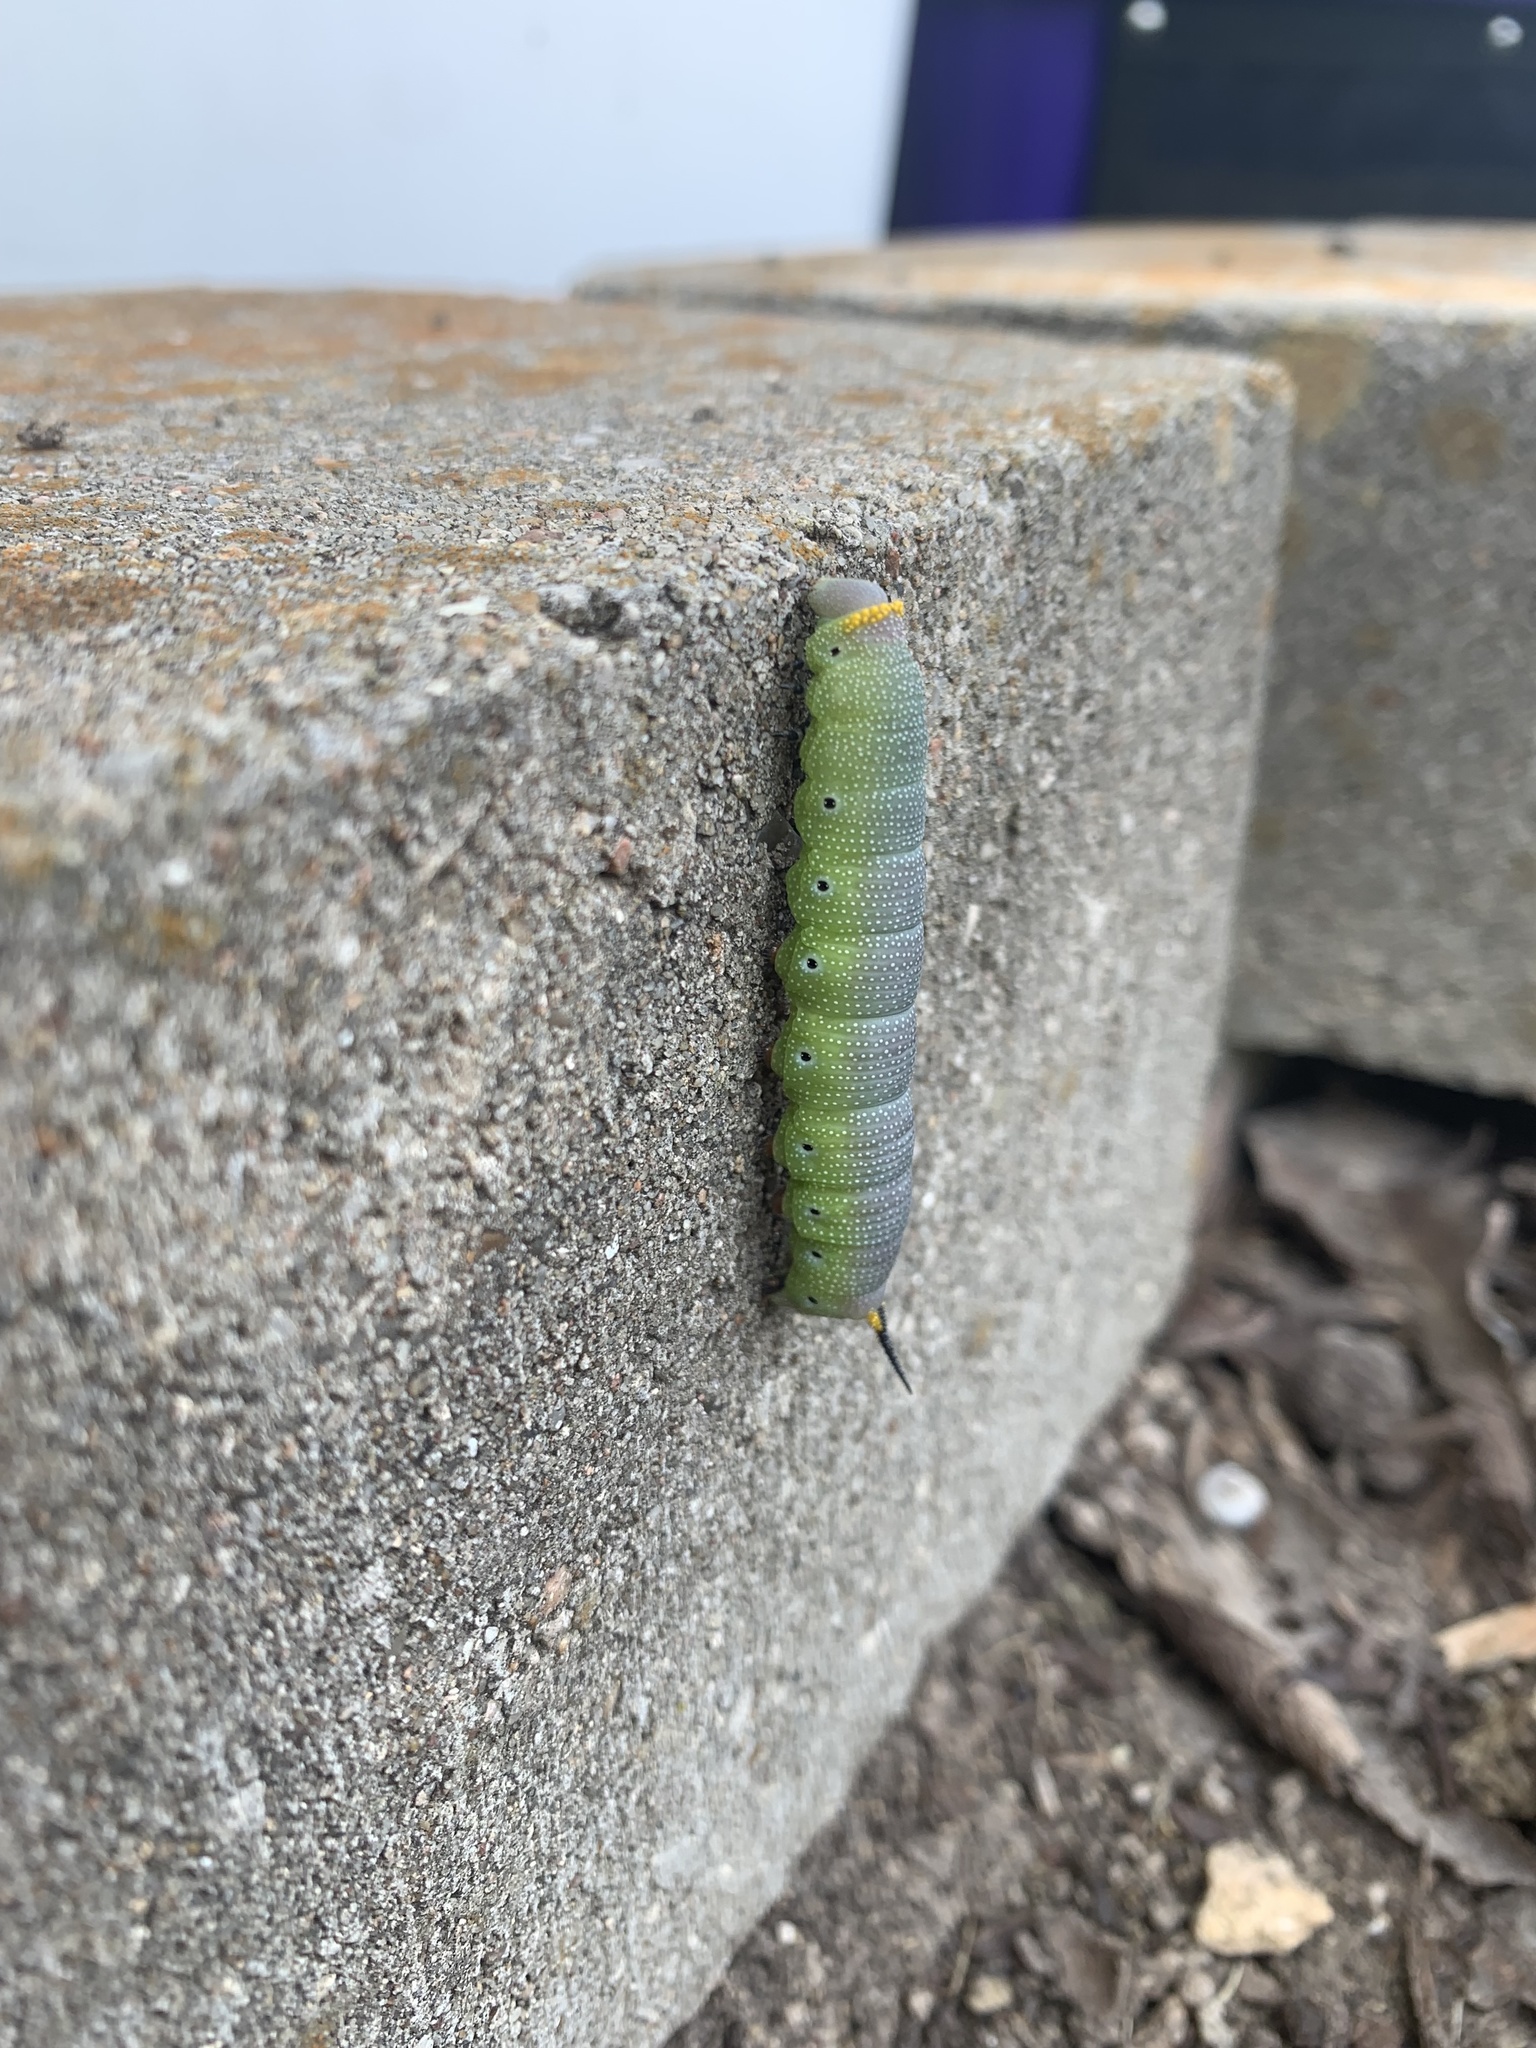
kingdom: Animalia
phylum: Arthropoda
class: Insecta
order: Lepidoptera
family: Sphingidae
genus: Hemaris
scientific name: Hemaris diffinis
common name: Bumblebee moth
